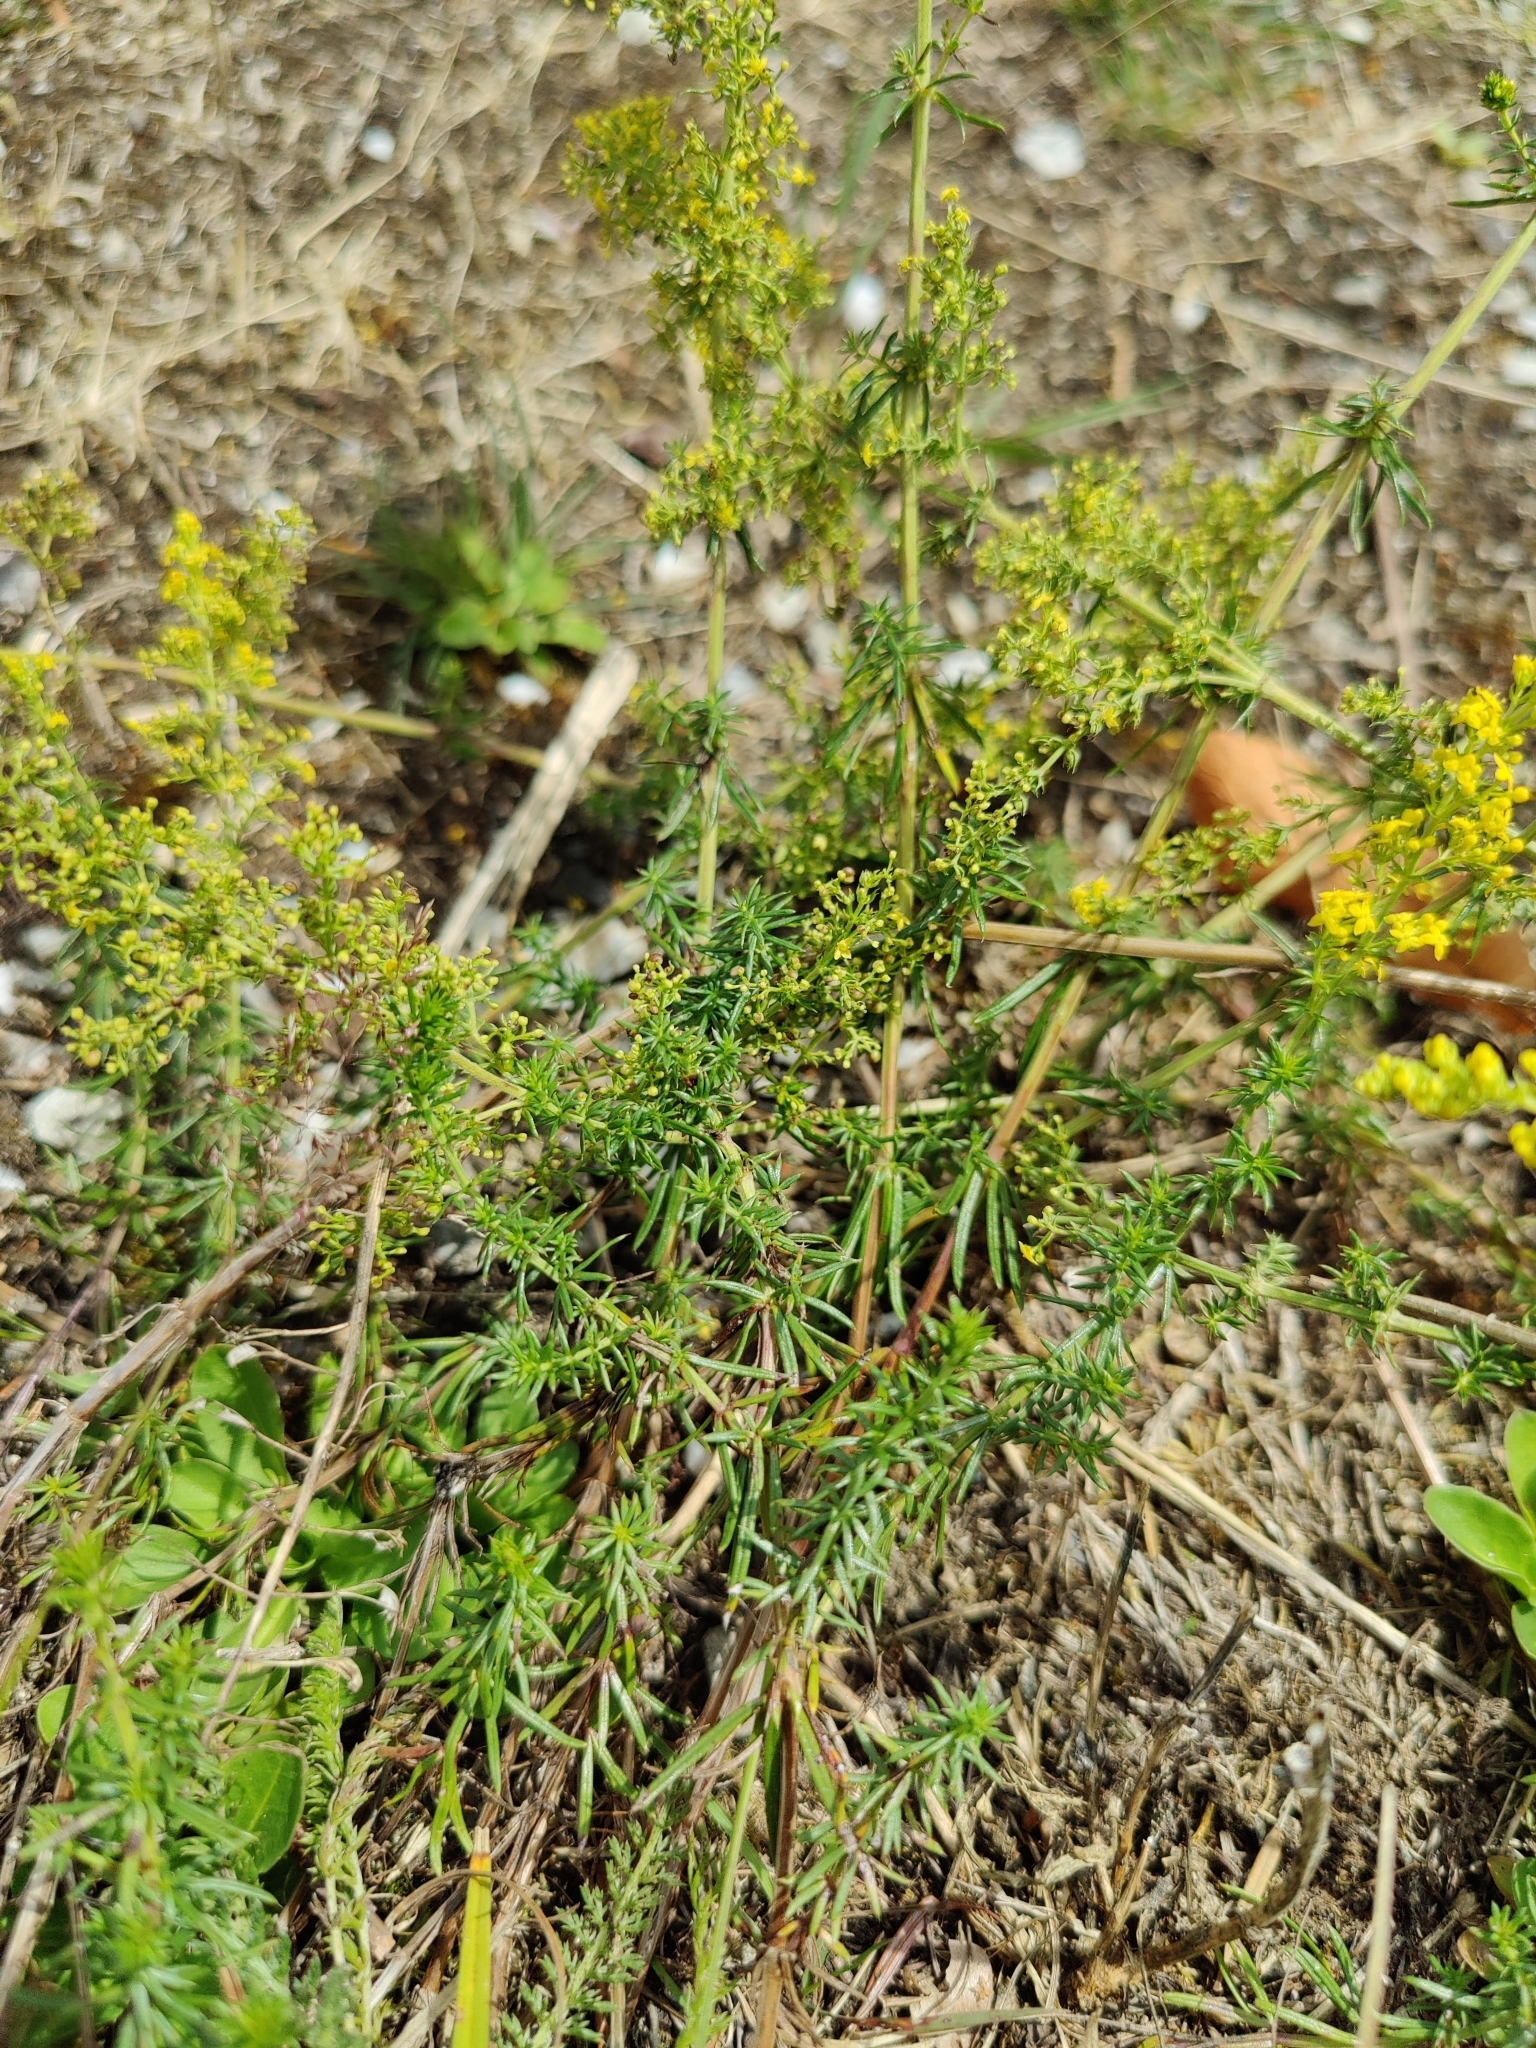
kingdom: Plantae
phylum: Tracheophyta
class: Magnoliopsida
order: Gentianales
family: Rubiaceae
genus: Galium
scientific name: Galium verum
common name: Lady's bedstraw
